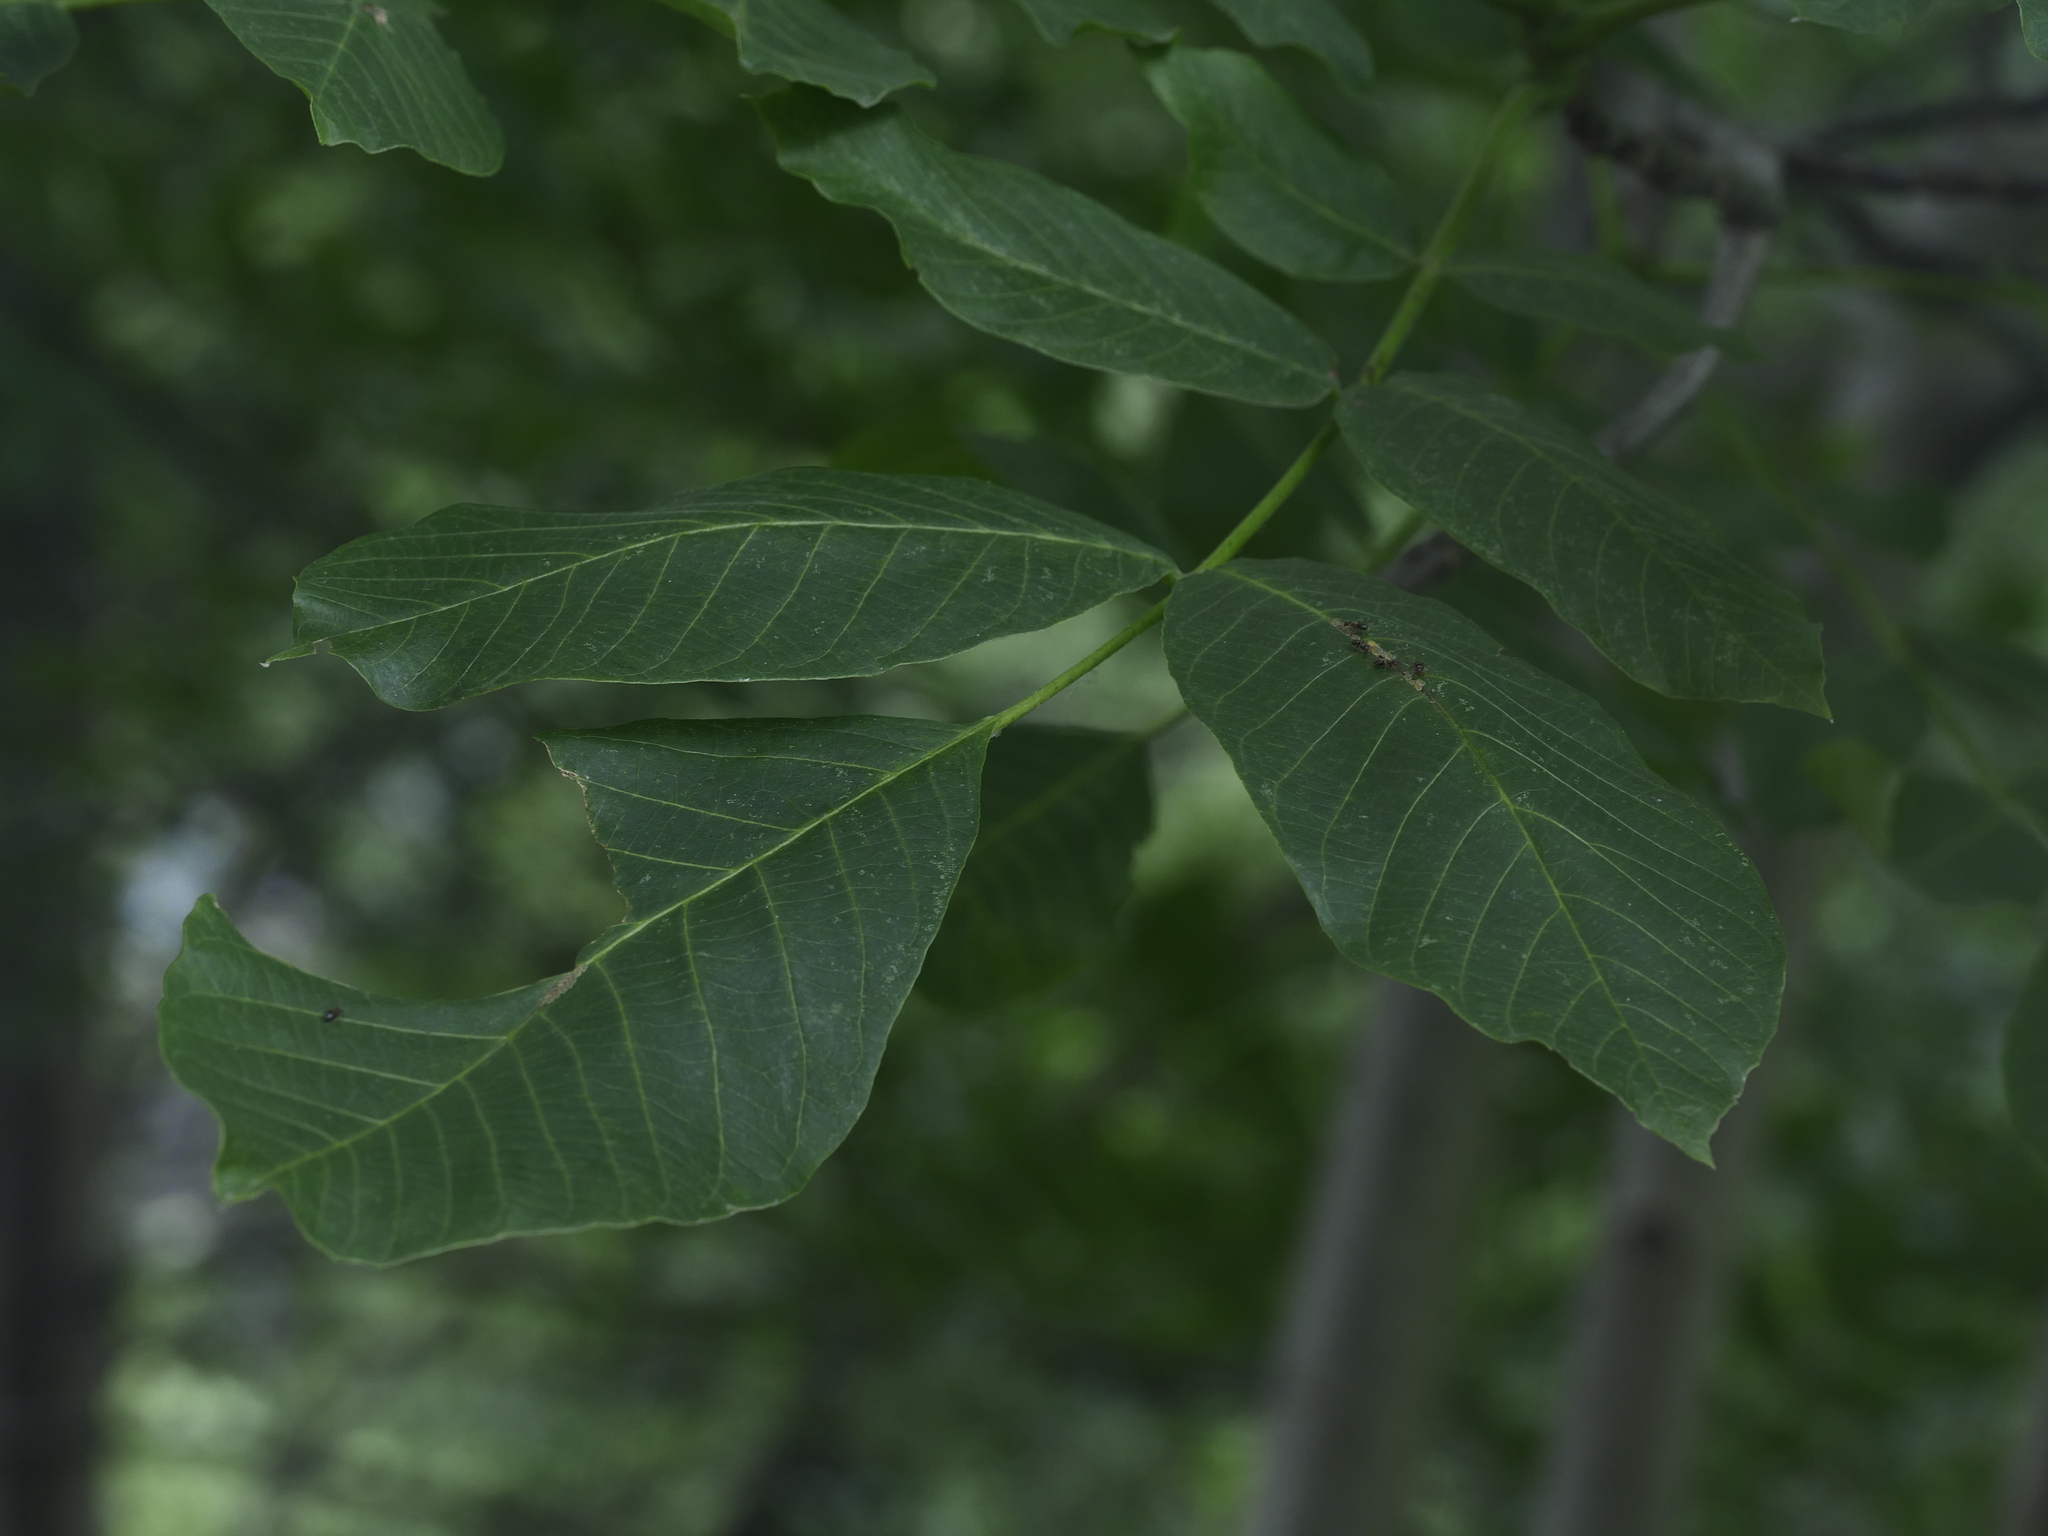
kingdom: Plantae
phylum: Tracheophyta
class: Magnoliopsida
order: Fagales
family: Juglandaceae
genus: Juglans
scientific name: Juglans regia
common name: Walnut
